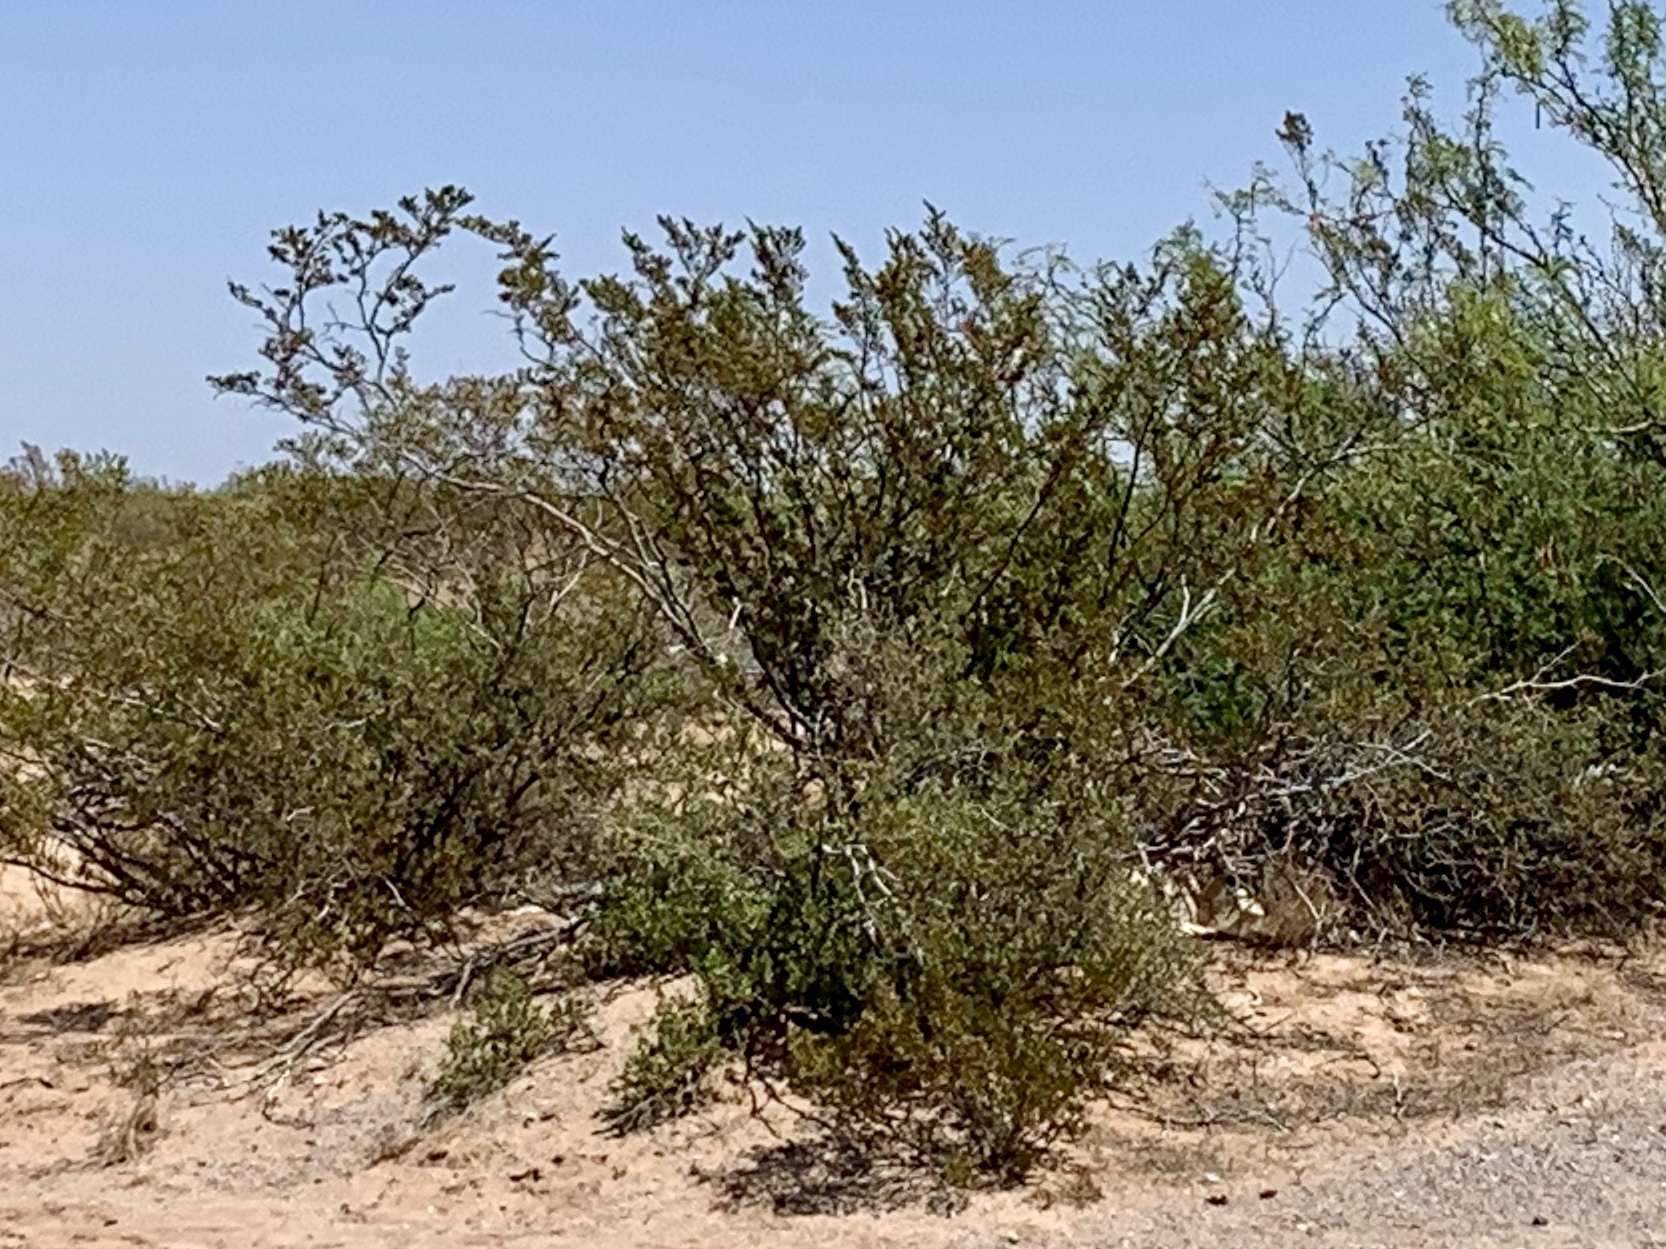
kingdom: Plantae
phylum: Tracheophyta
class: Magnoliopsida
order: Zygophyllales
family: Zygophyllaceae
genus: Larrea
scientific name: Larrea tridentata
